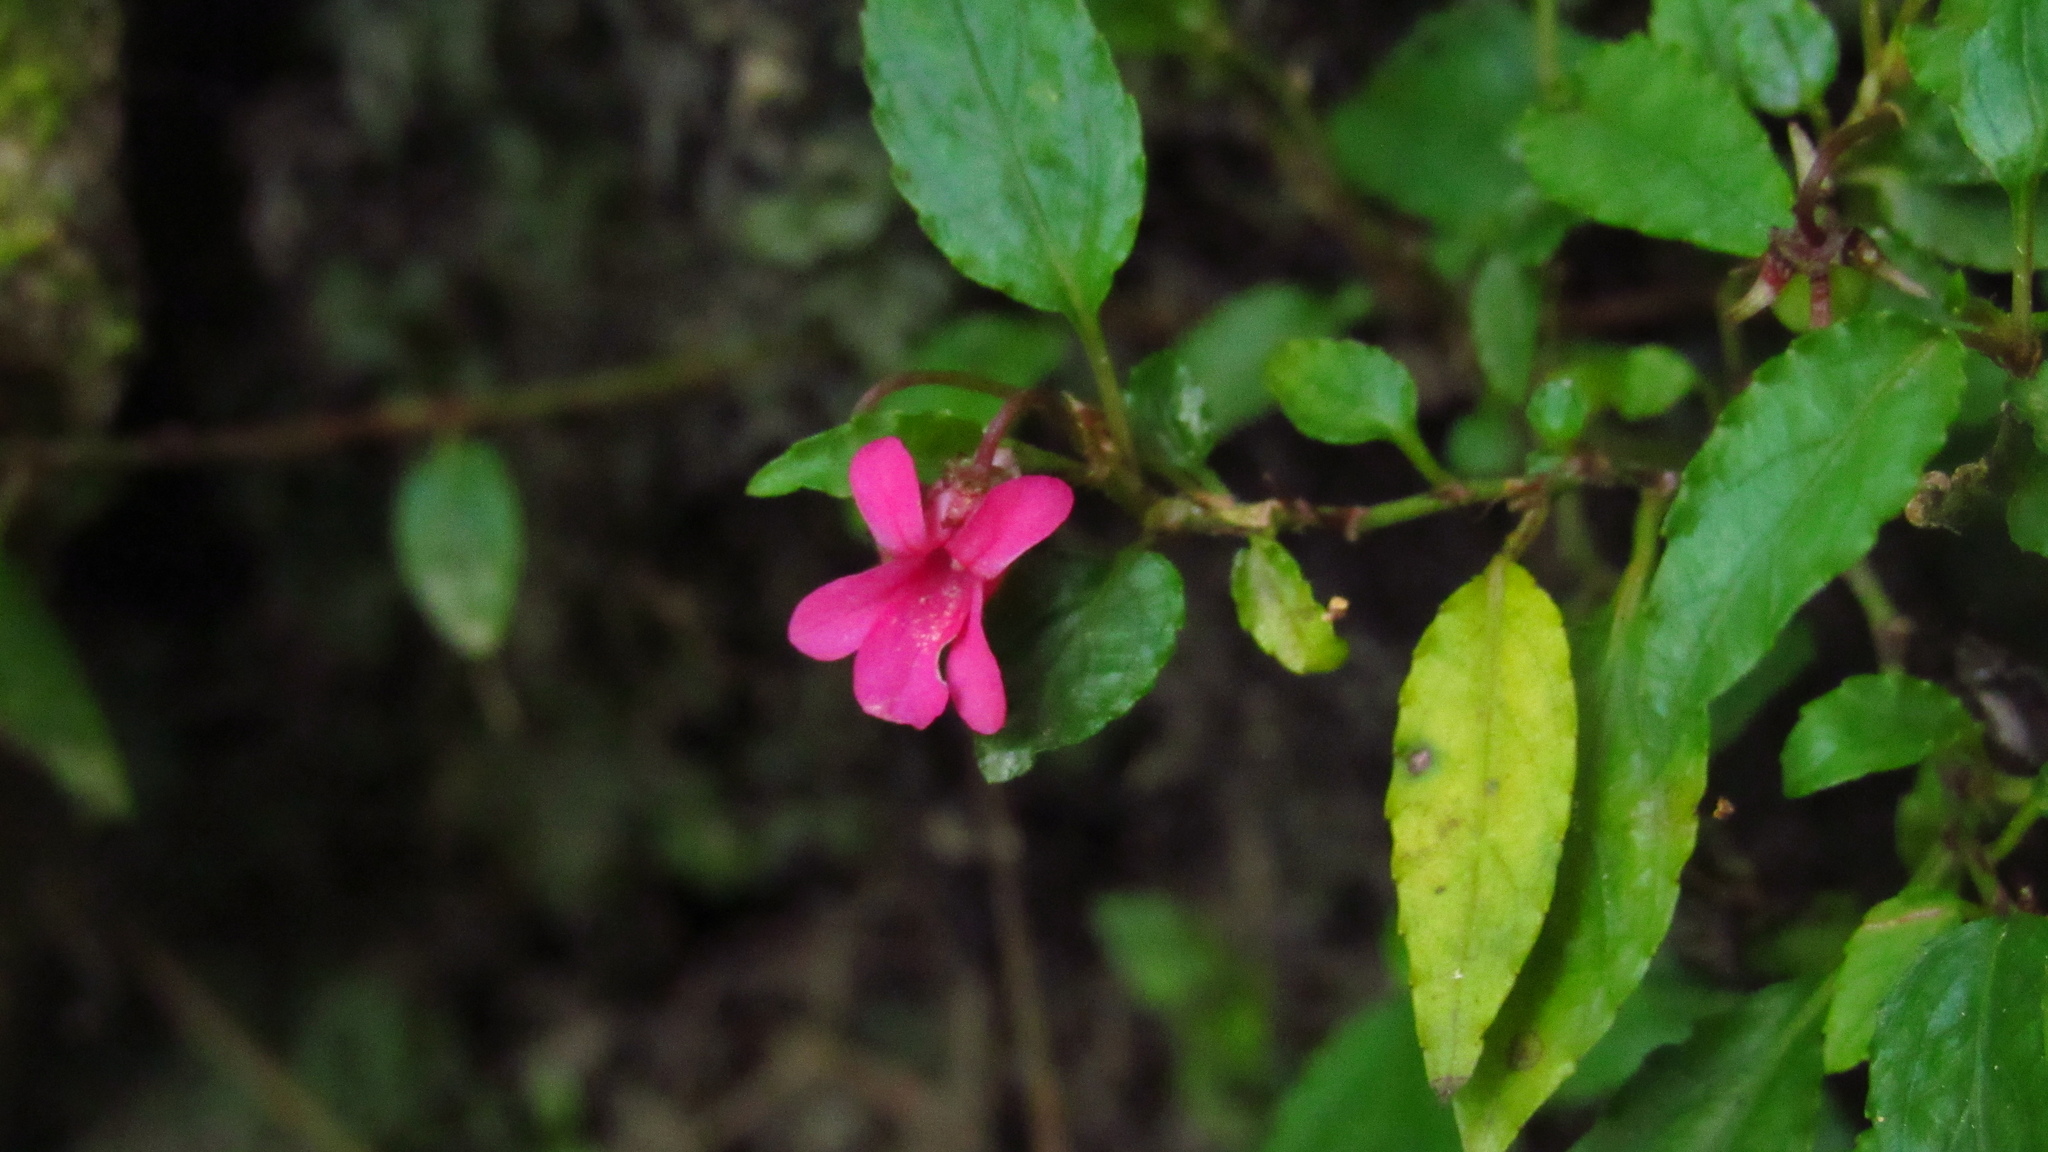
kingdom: Plantae
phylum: Tracheophyta
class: Magnoliopsida
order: Malpighiales
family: Violaceae
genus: Viola
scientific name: Viola rubella
